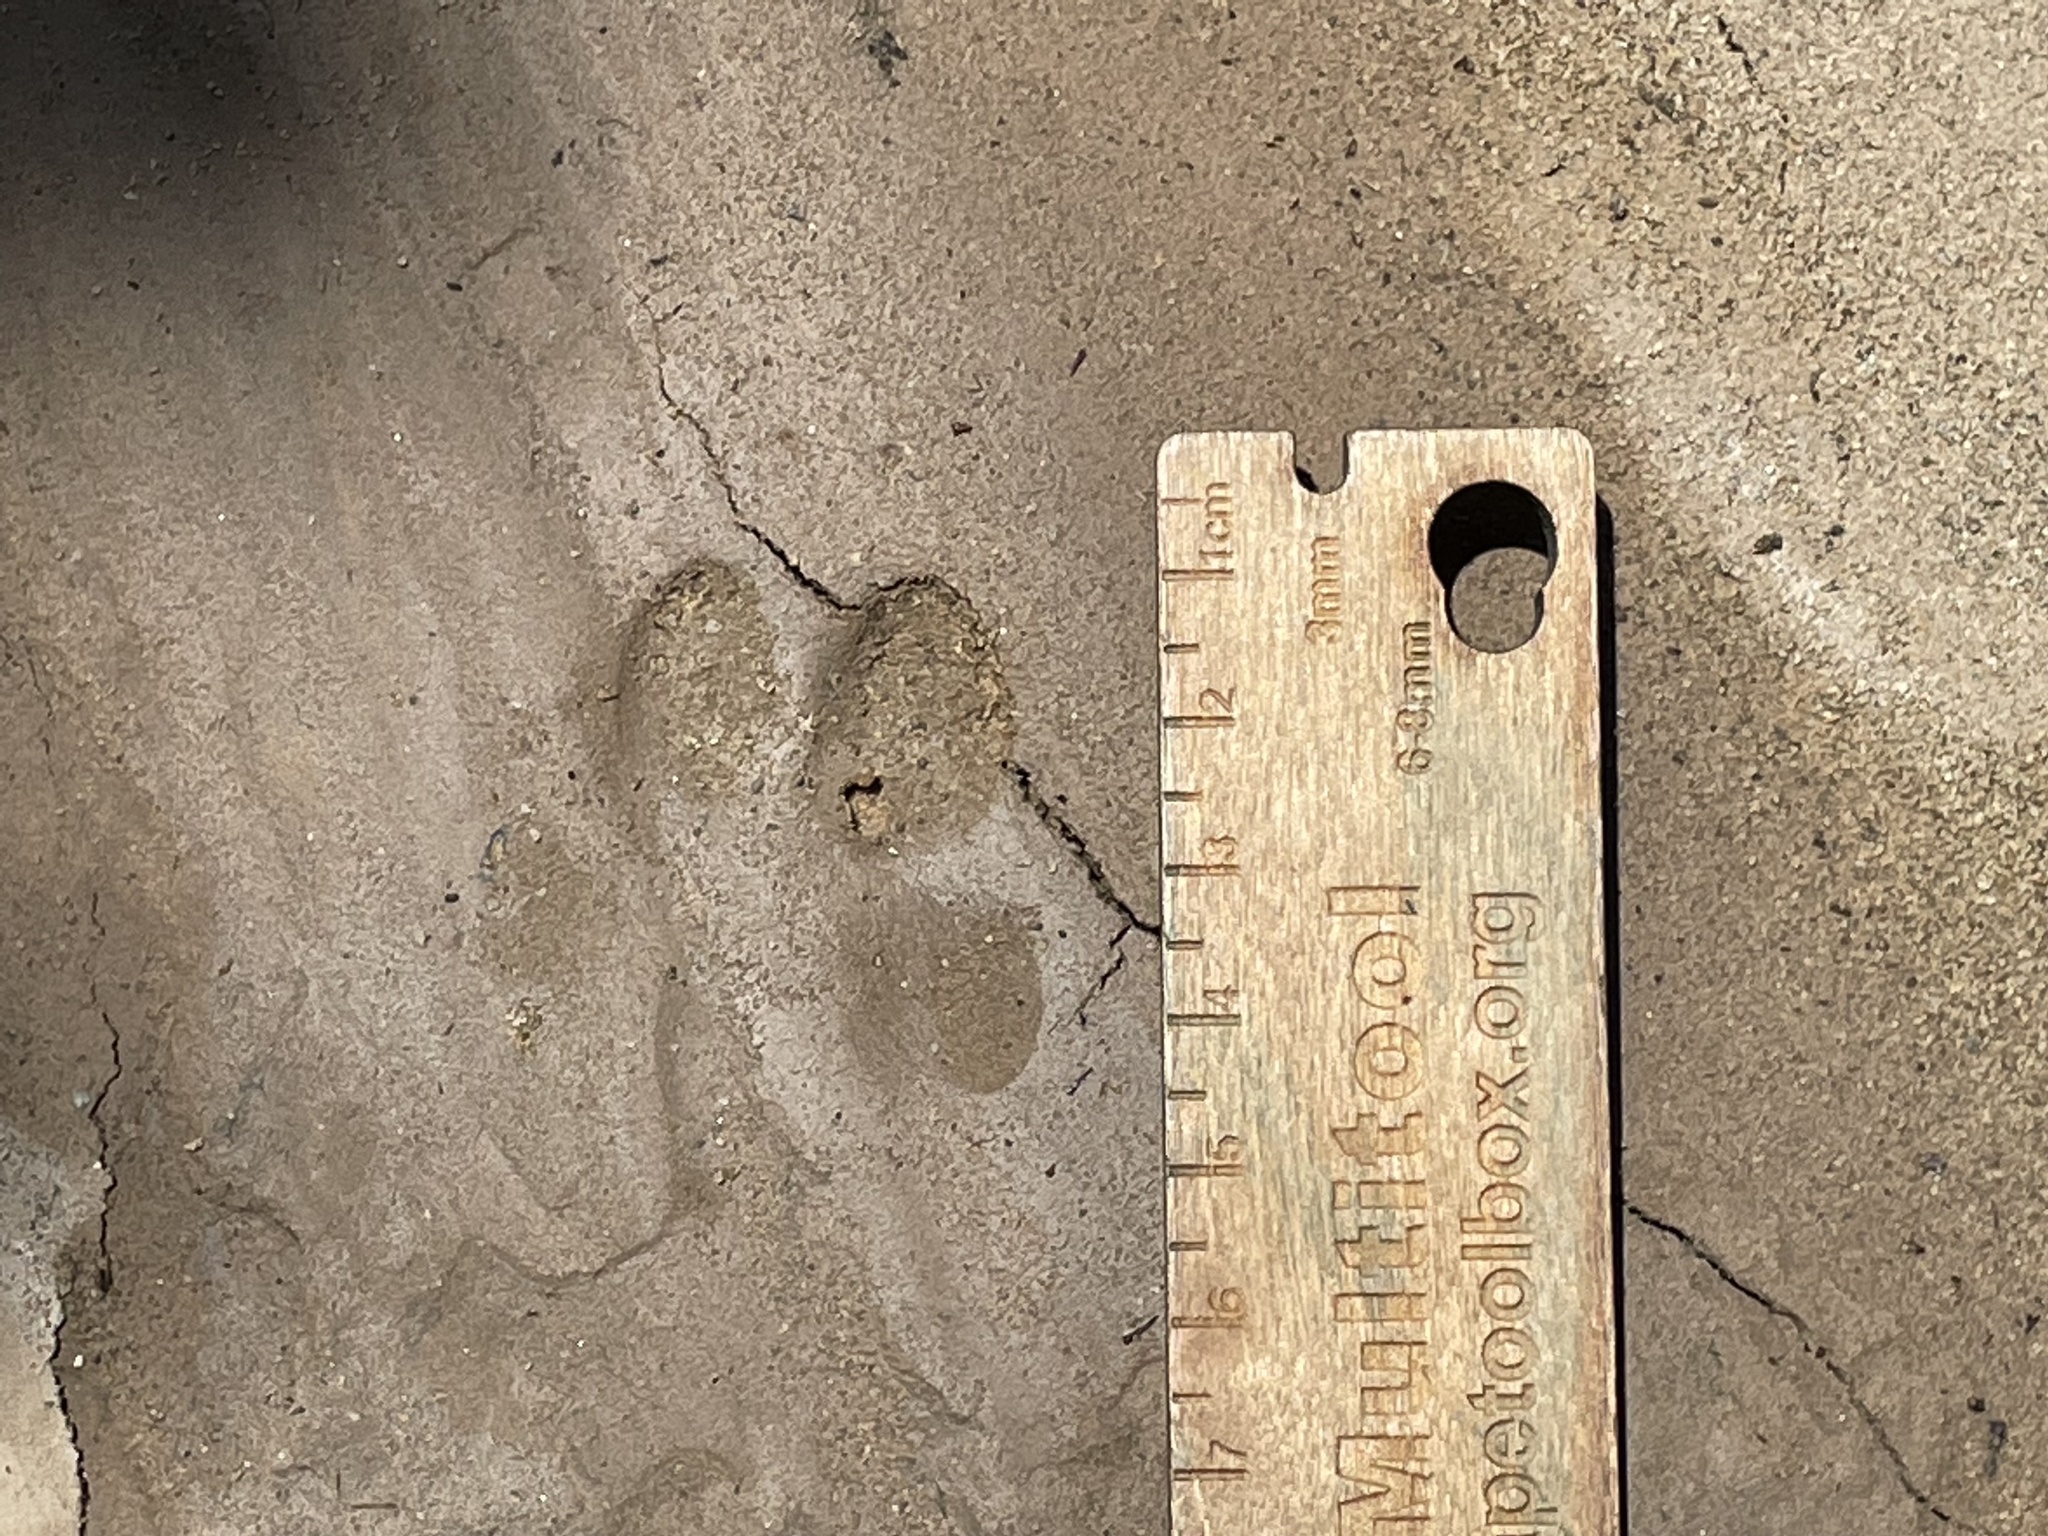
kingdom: Animalia
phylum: Chordata
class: Mammalia
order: Carnivora
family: Canidae
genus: Vulpes
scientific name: Vulpes vulpes
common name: Red fox
